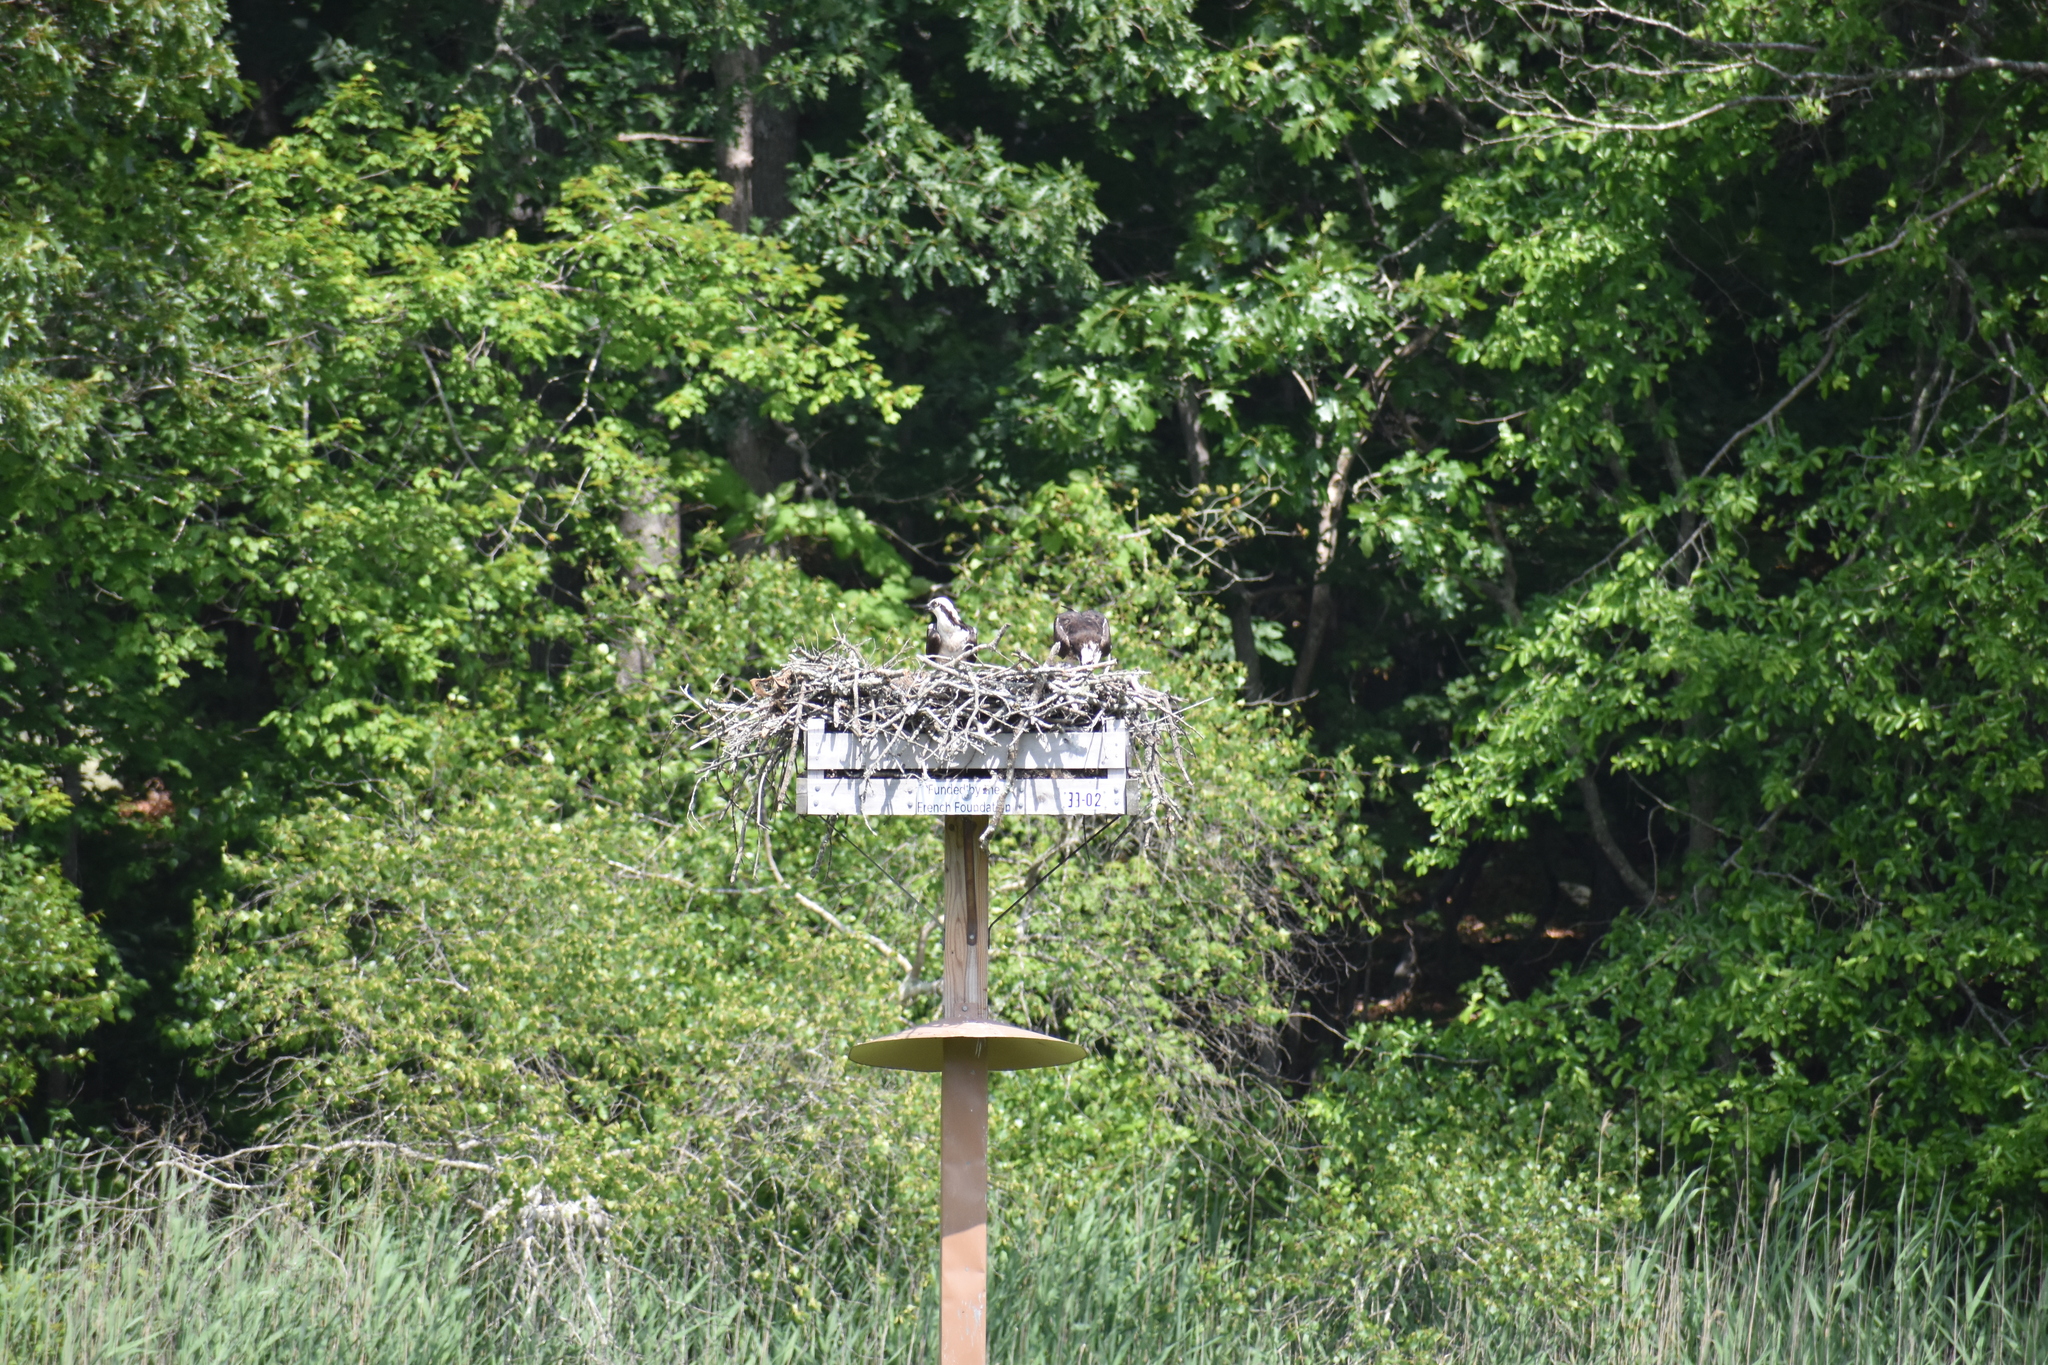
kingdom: Animalia
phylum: Chordata
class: Aves
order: Accipitriformes
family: Pandionidae
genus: Pandion
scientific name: Pandion haliaetus
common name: Osprey
